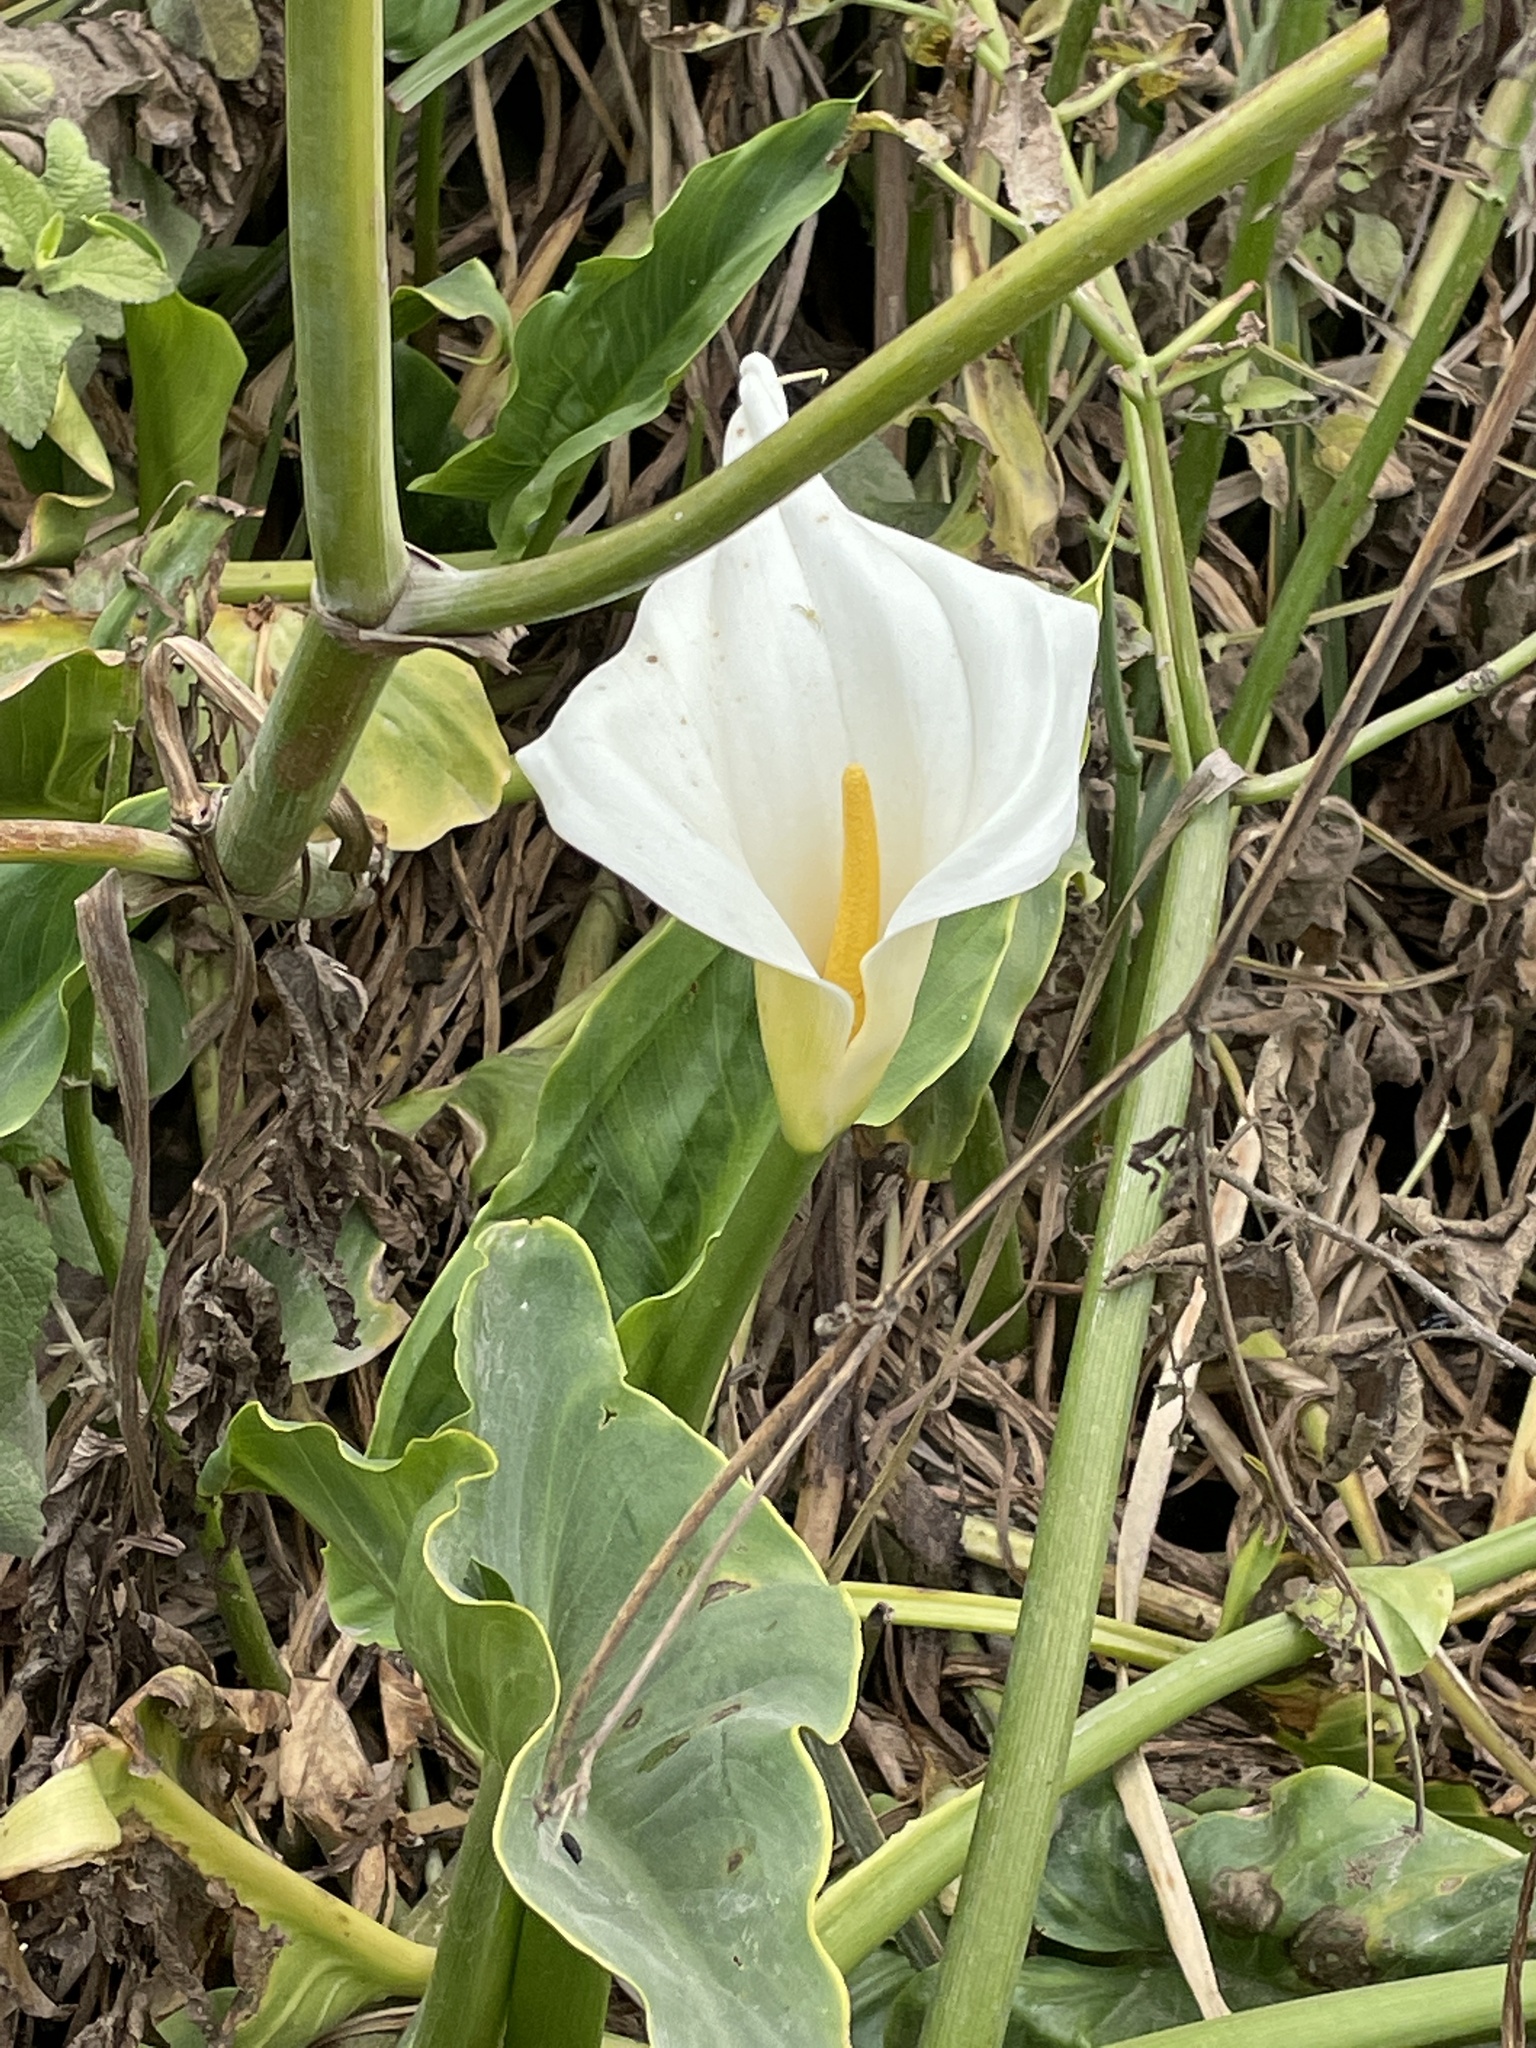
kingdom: Plantae
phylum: Tracheophyta
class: Liliopsida
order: Alismatales
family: Araceae
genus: Zantedeschia
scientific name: Zantedeschia aethiopica
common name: Altar-lily
